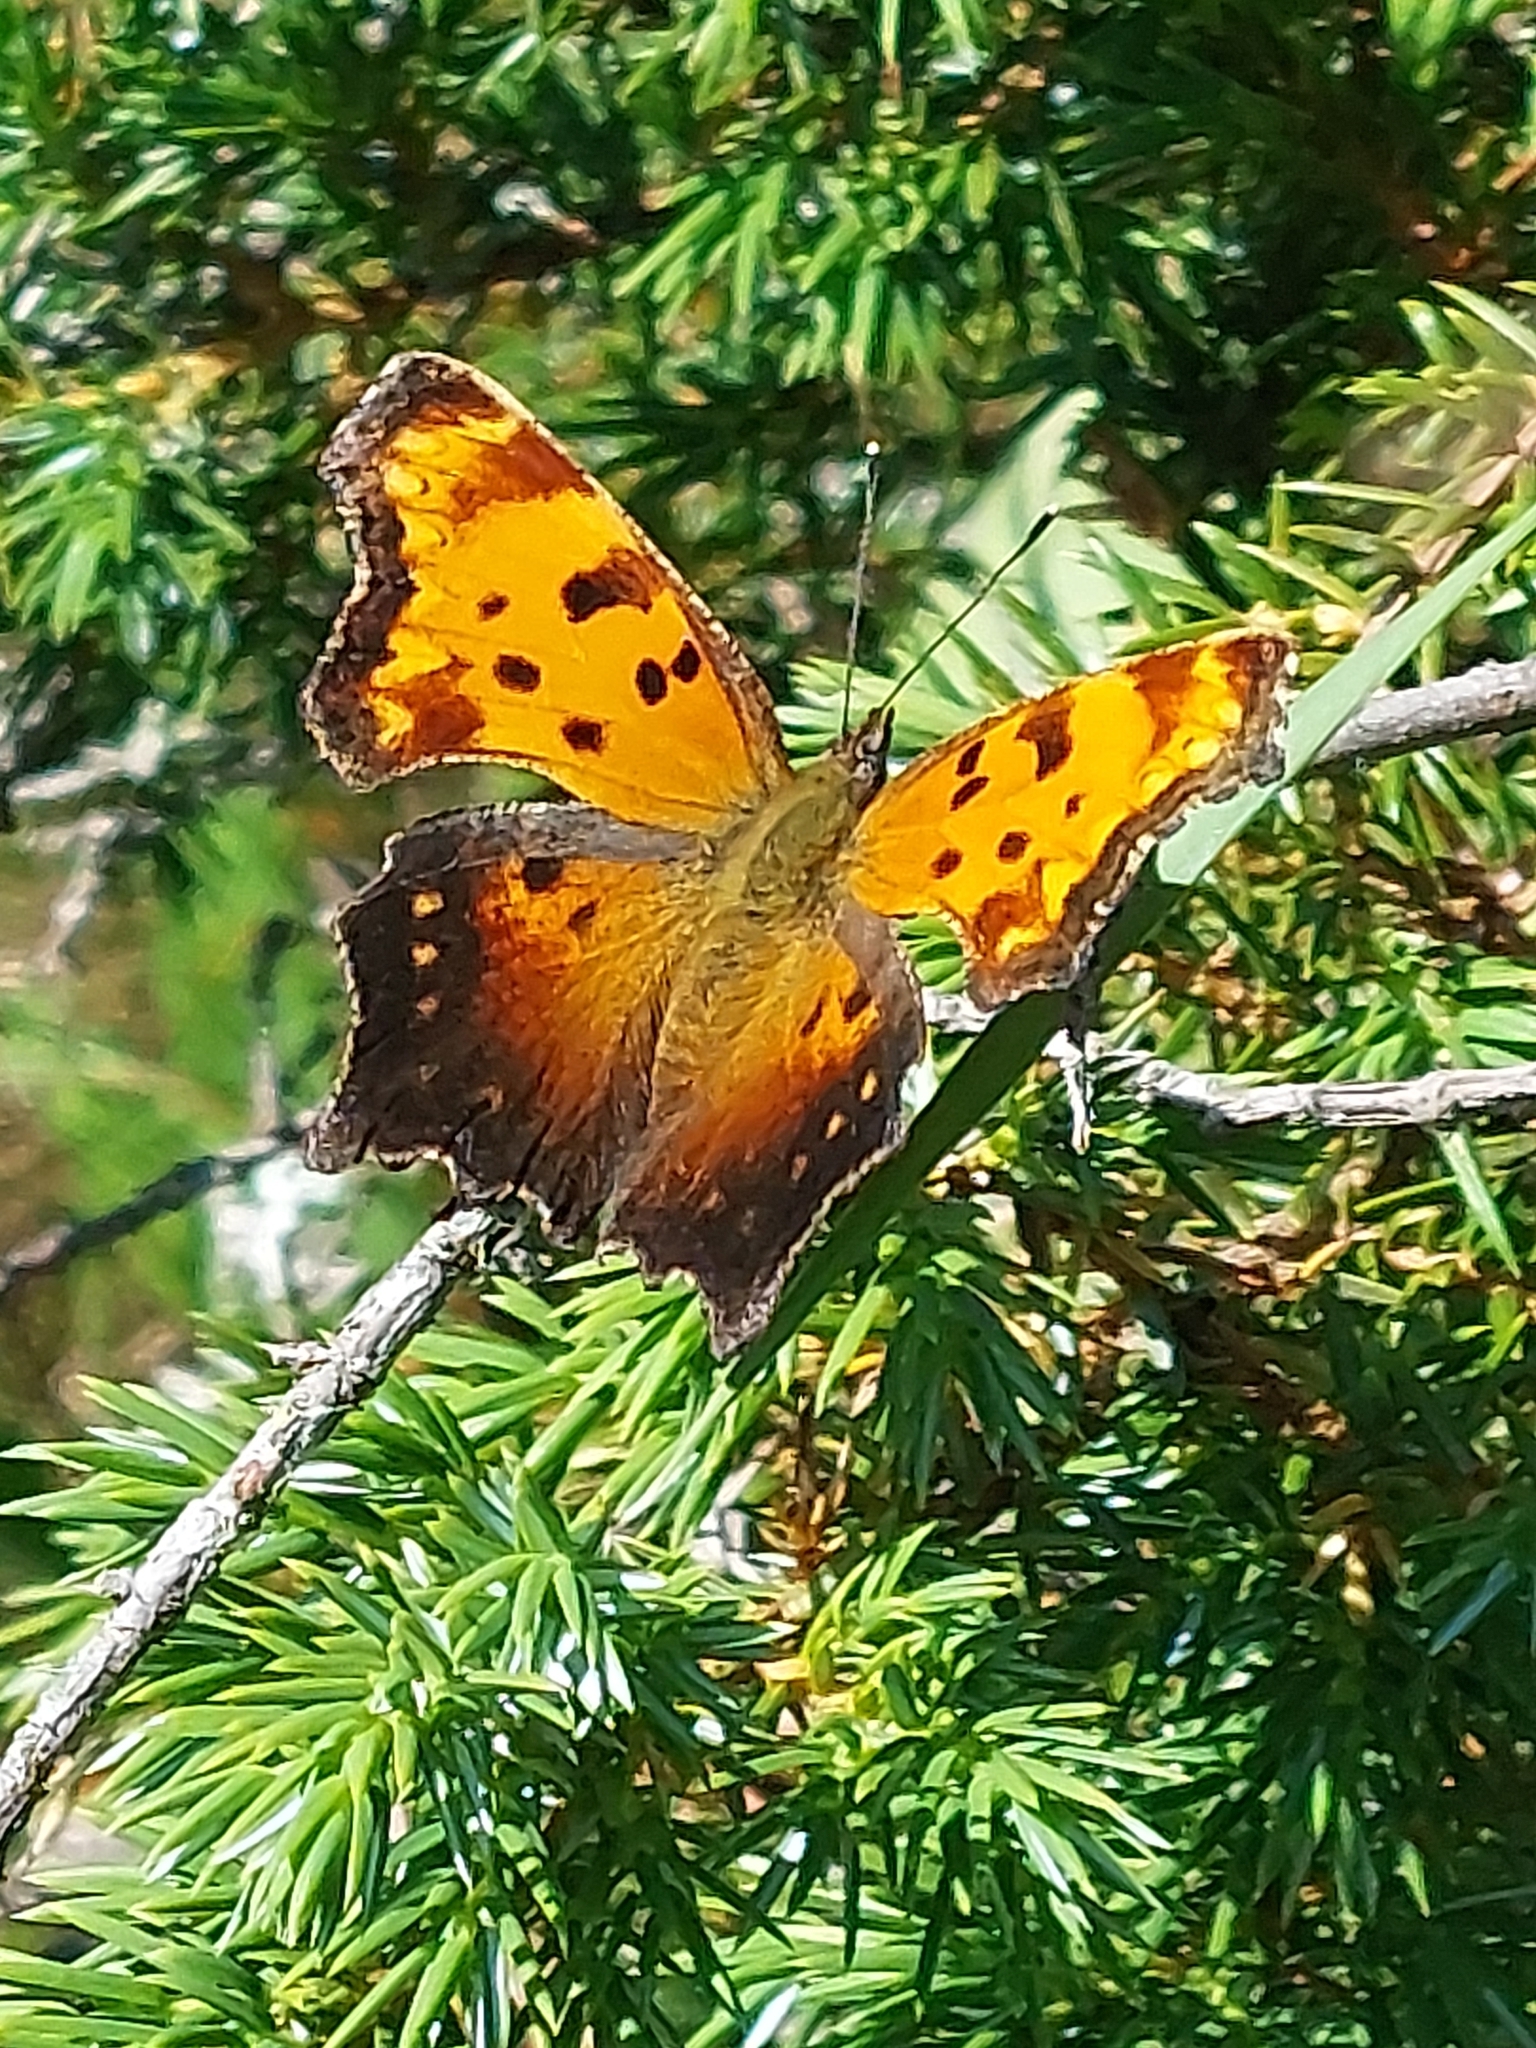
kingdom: Animalia
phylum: Arthropoda
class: Insecta
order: Lepidoptera
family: Nymphalidae
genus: Polygonia
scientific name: Polygonia progne
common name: Gray comma
